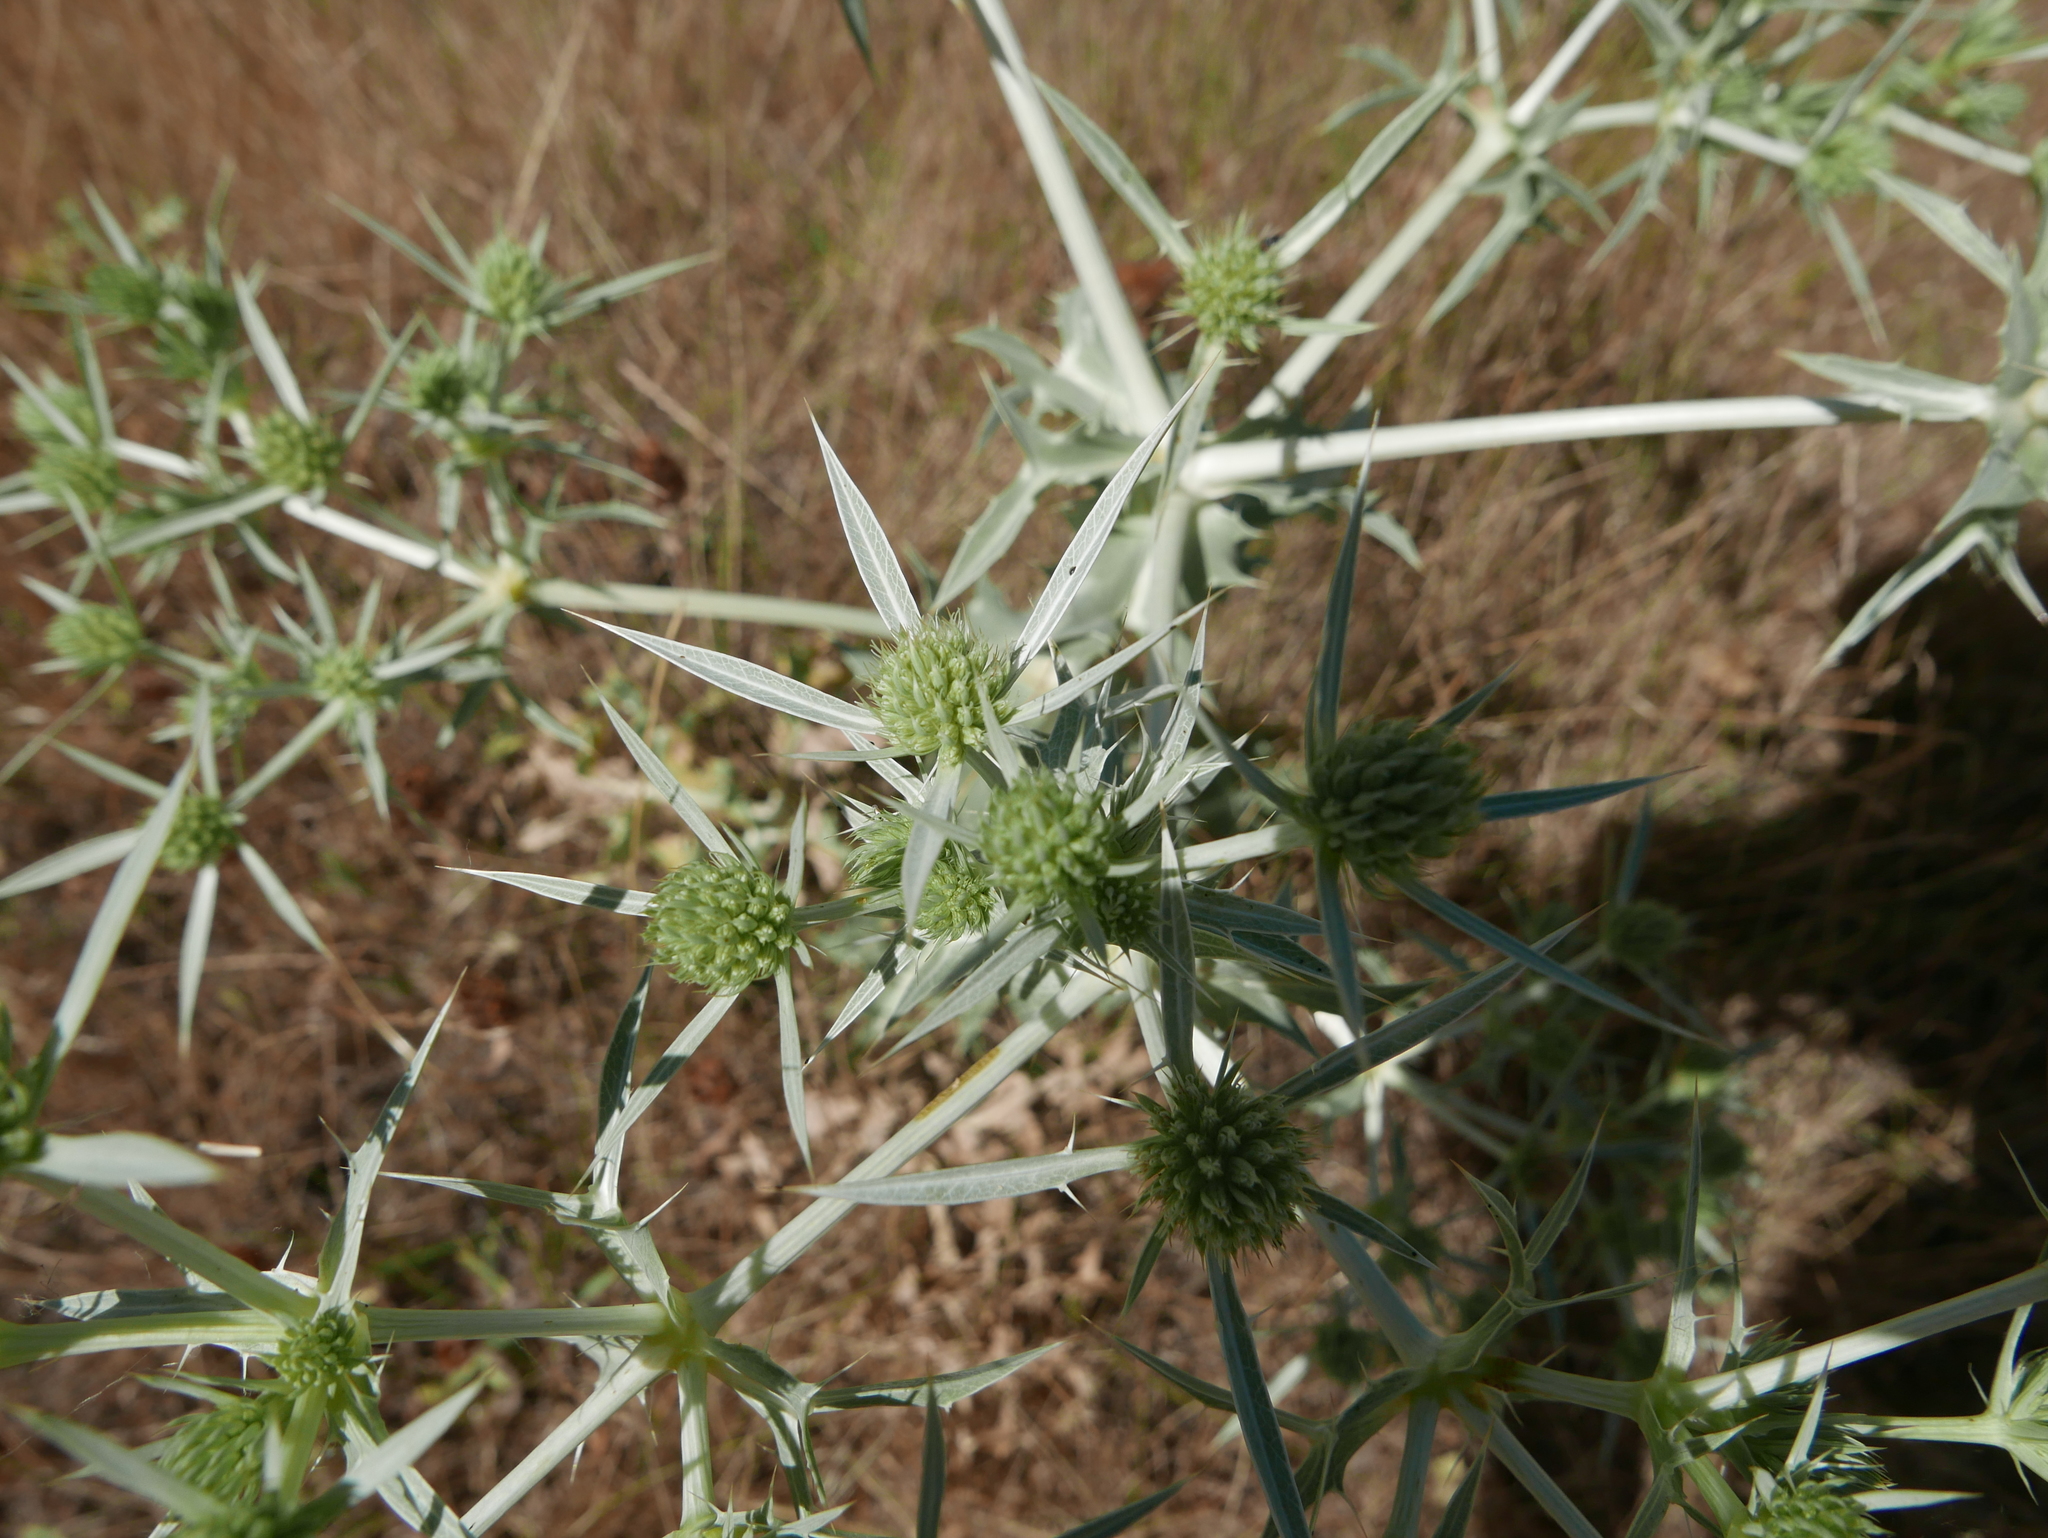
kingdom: Plantae
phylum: Tracheophyta
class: Magnoliopsida
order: Apiales
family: Apiaceae
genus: Eryngium
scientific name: Eryngium campestre
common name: Field eryngo
